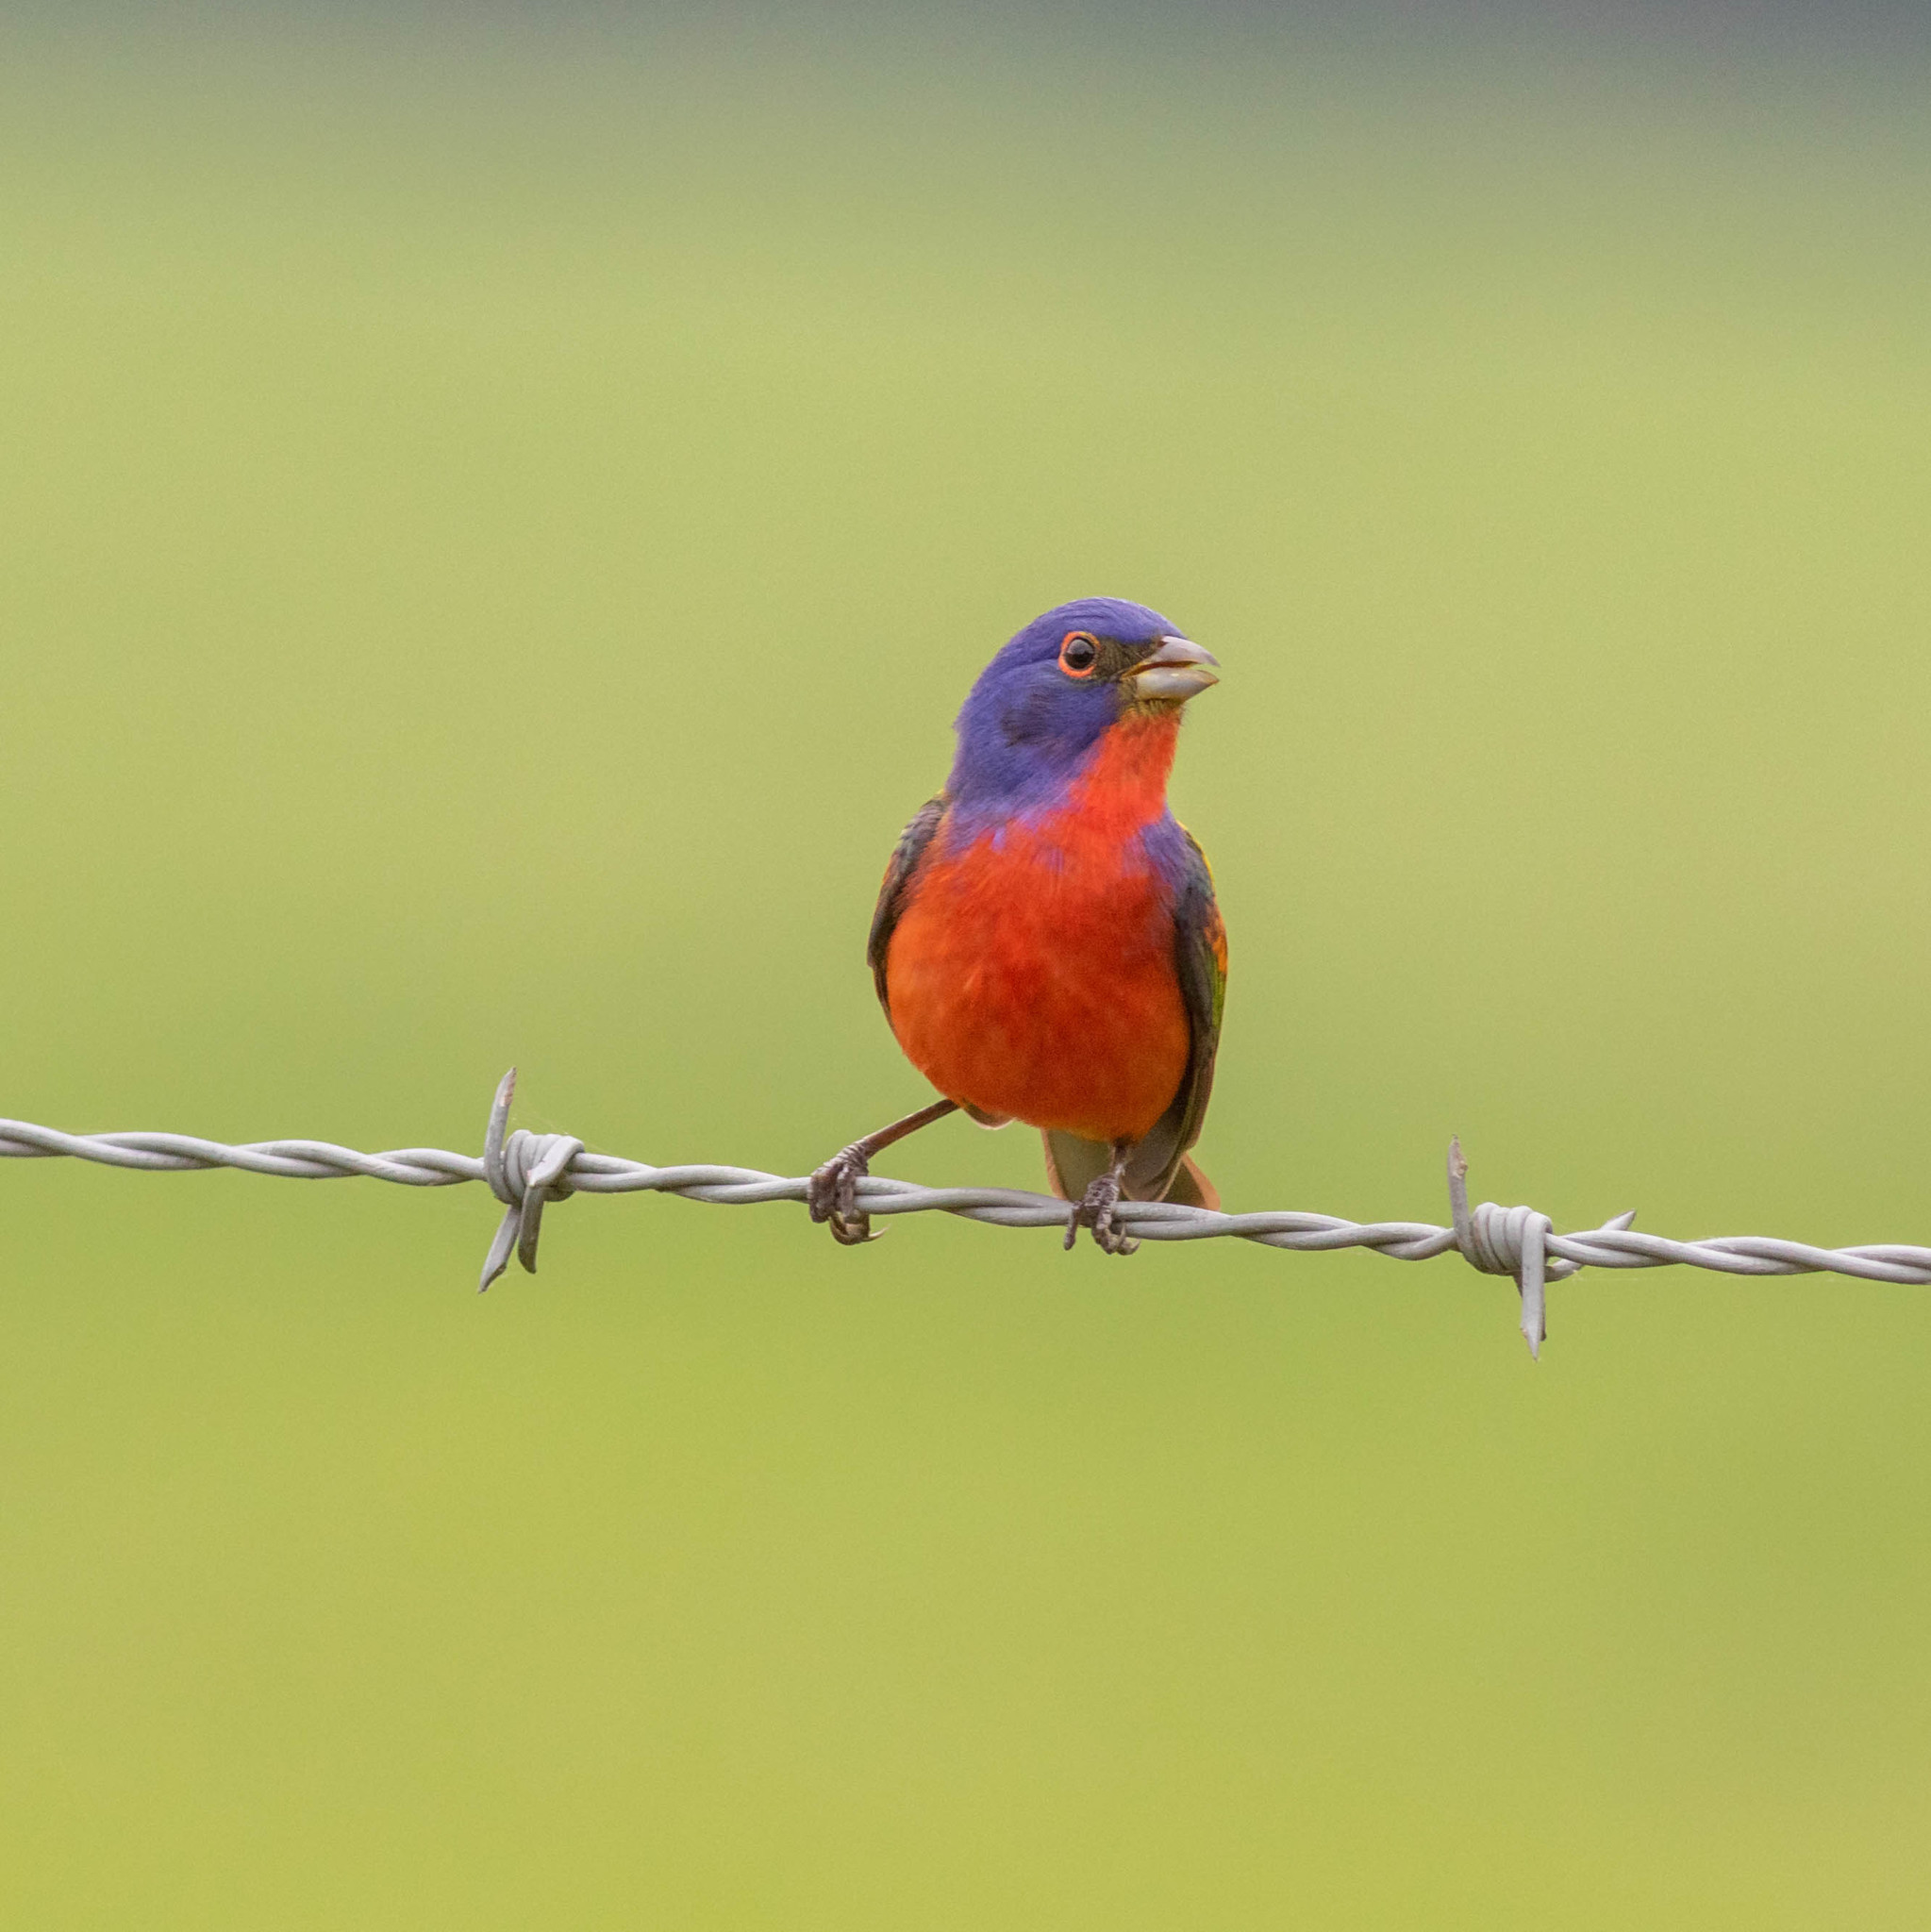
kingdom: Animalia
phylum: Chordata
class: Aves
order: Passeriformes
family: Cardinalidae
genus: Passerina
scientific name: Passerina ciris
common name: Painted bunting
